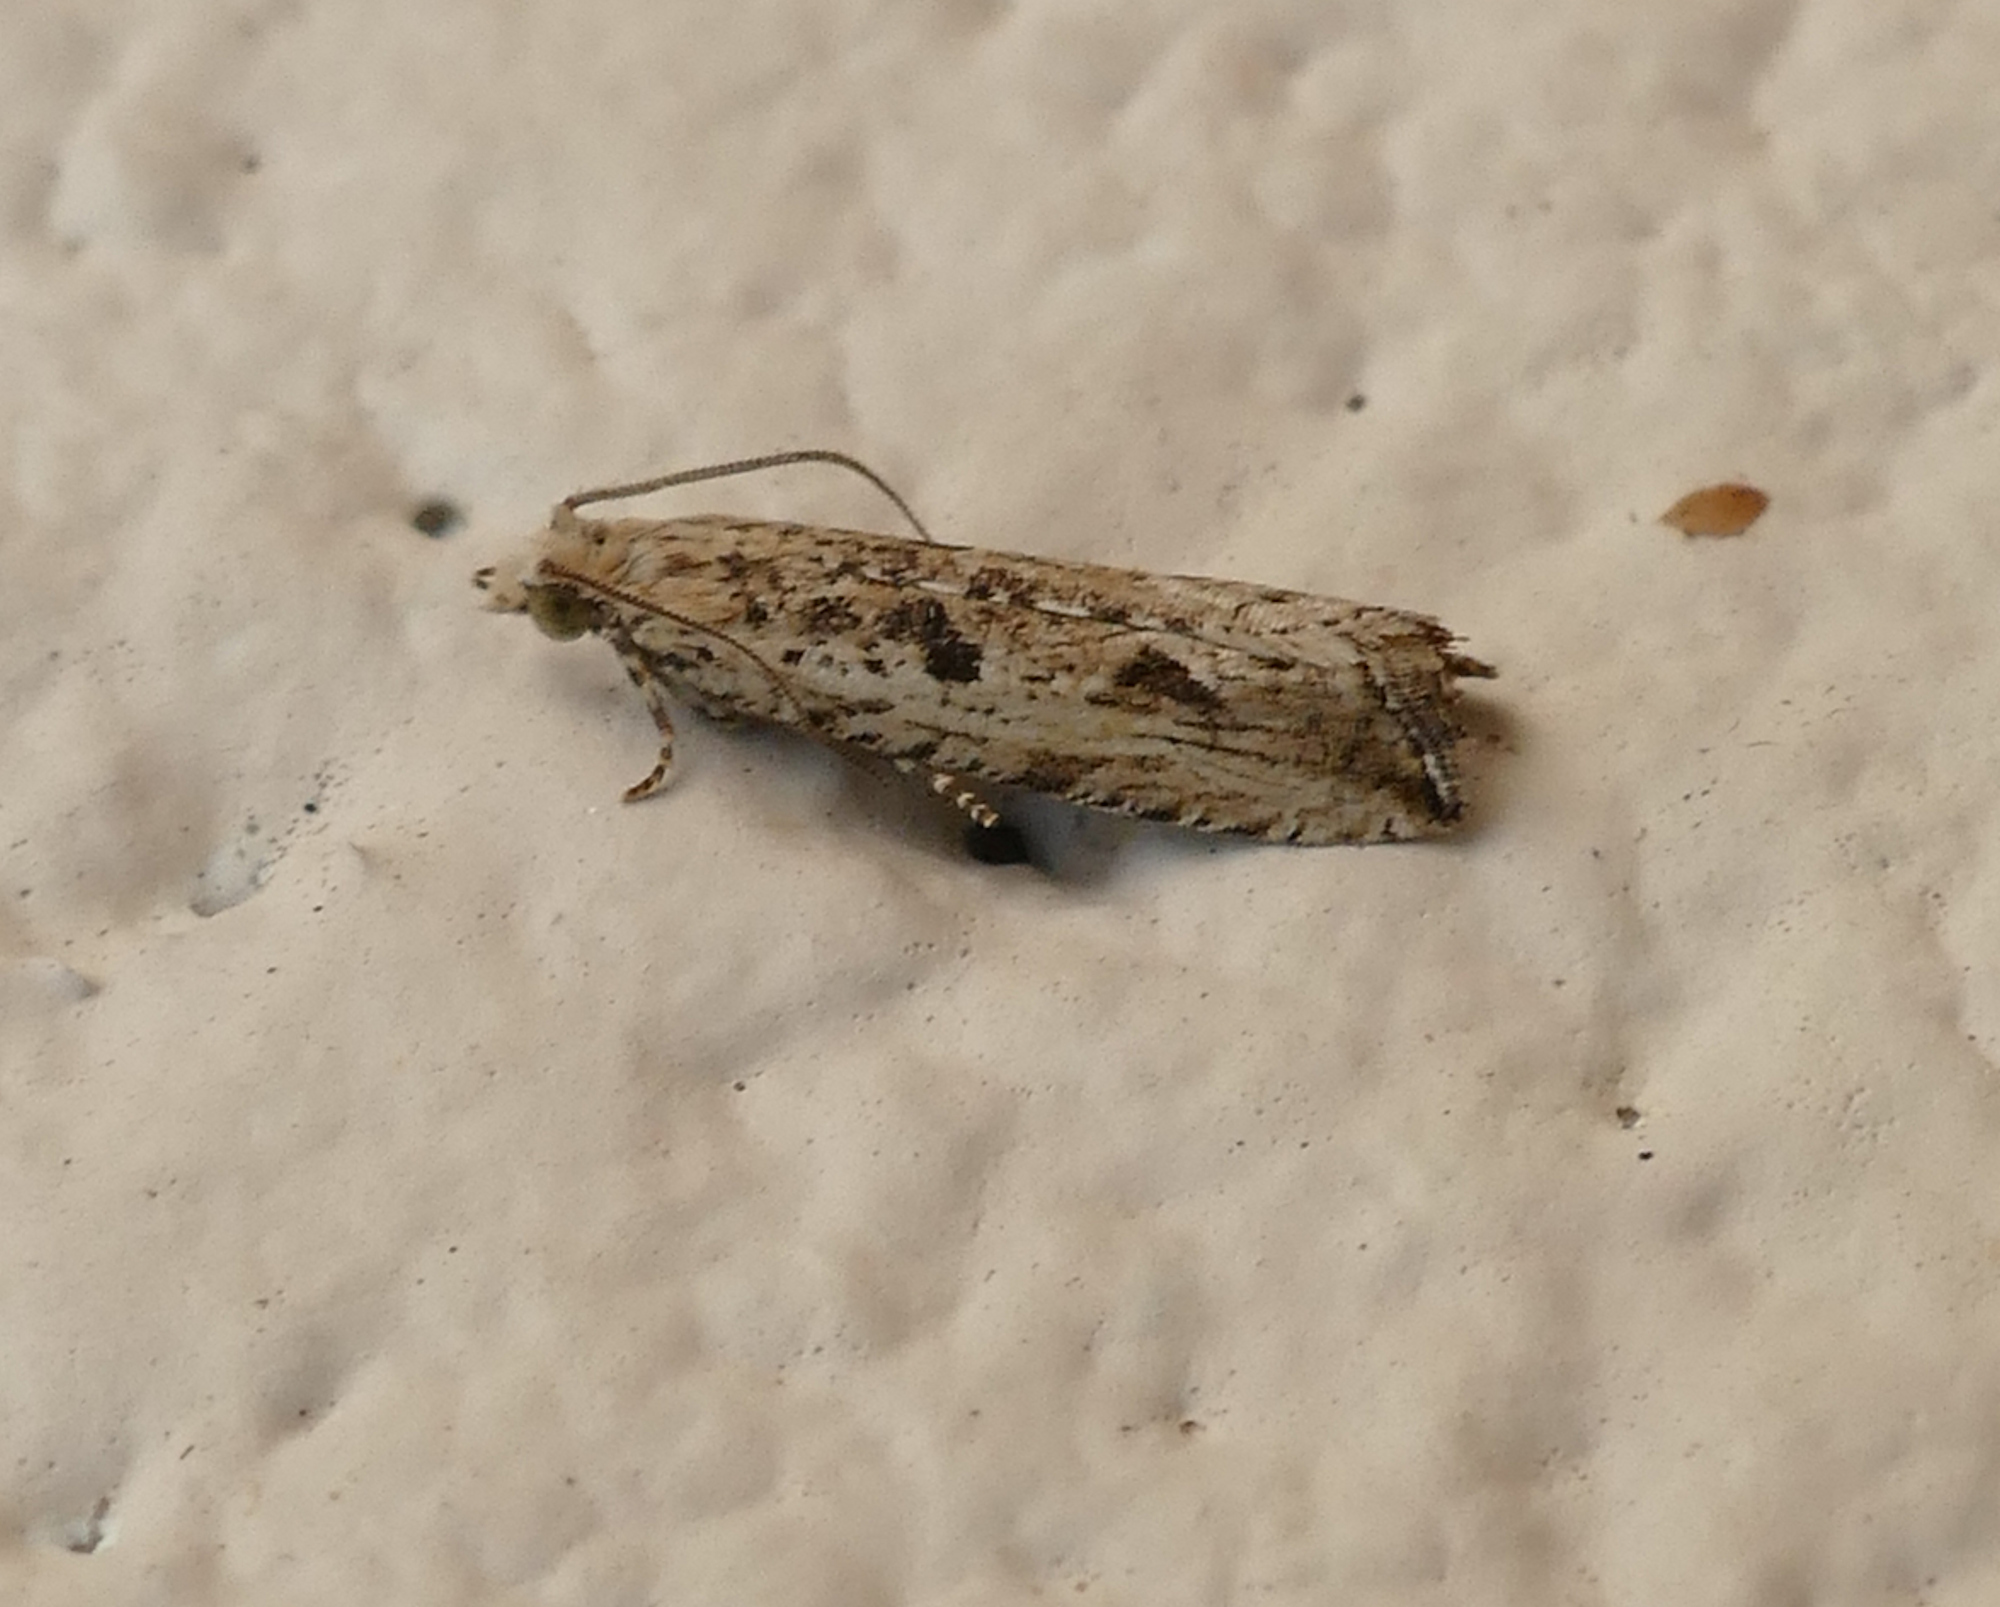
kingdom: Animalia
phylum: Arthropoda
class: Insecta
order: Lepidoptera
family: Tortricidae
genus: Bactra
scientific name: Bactra verutana
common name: Javelin moth
